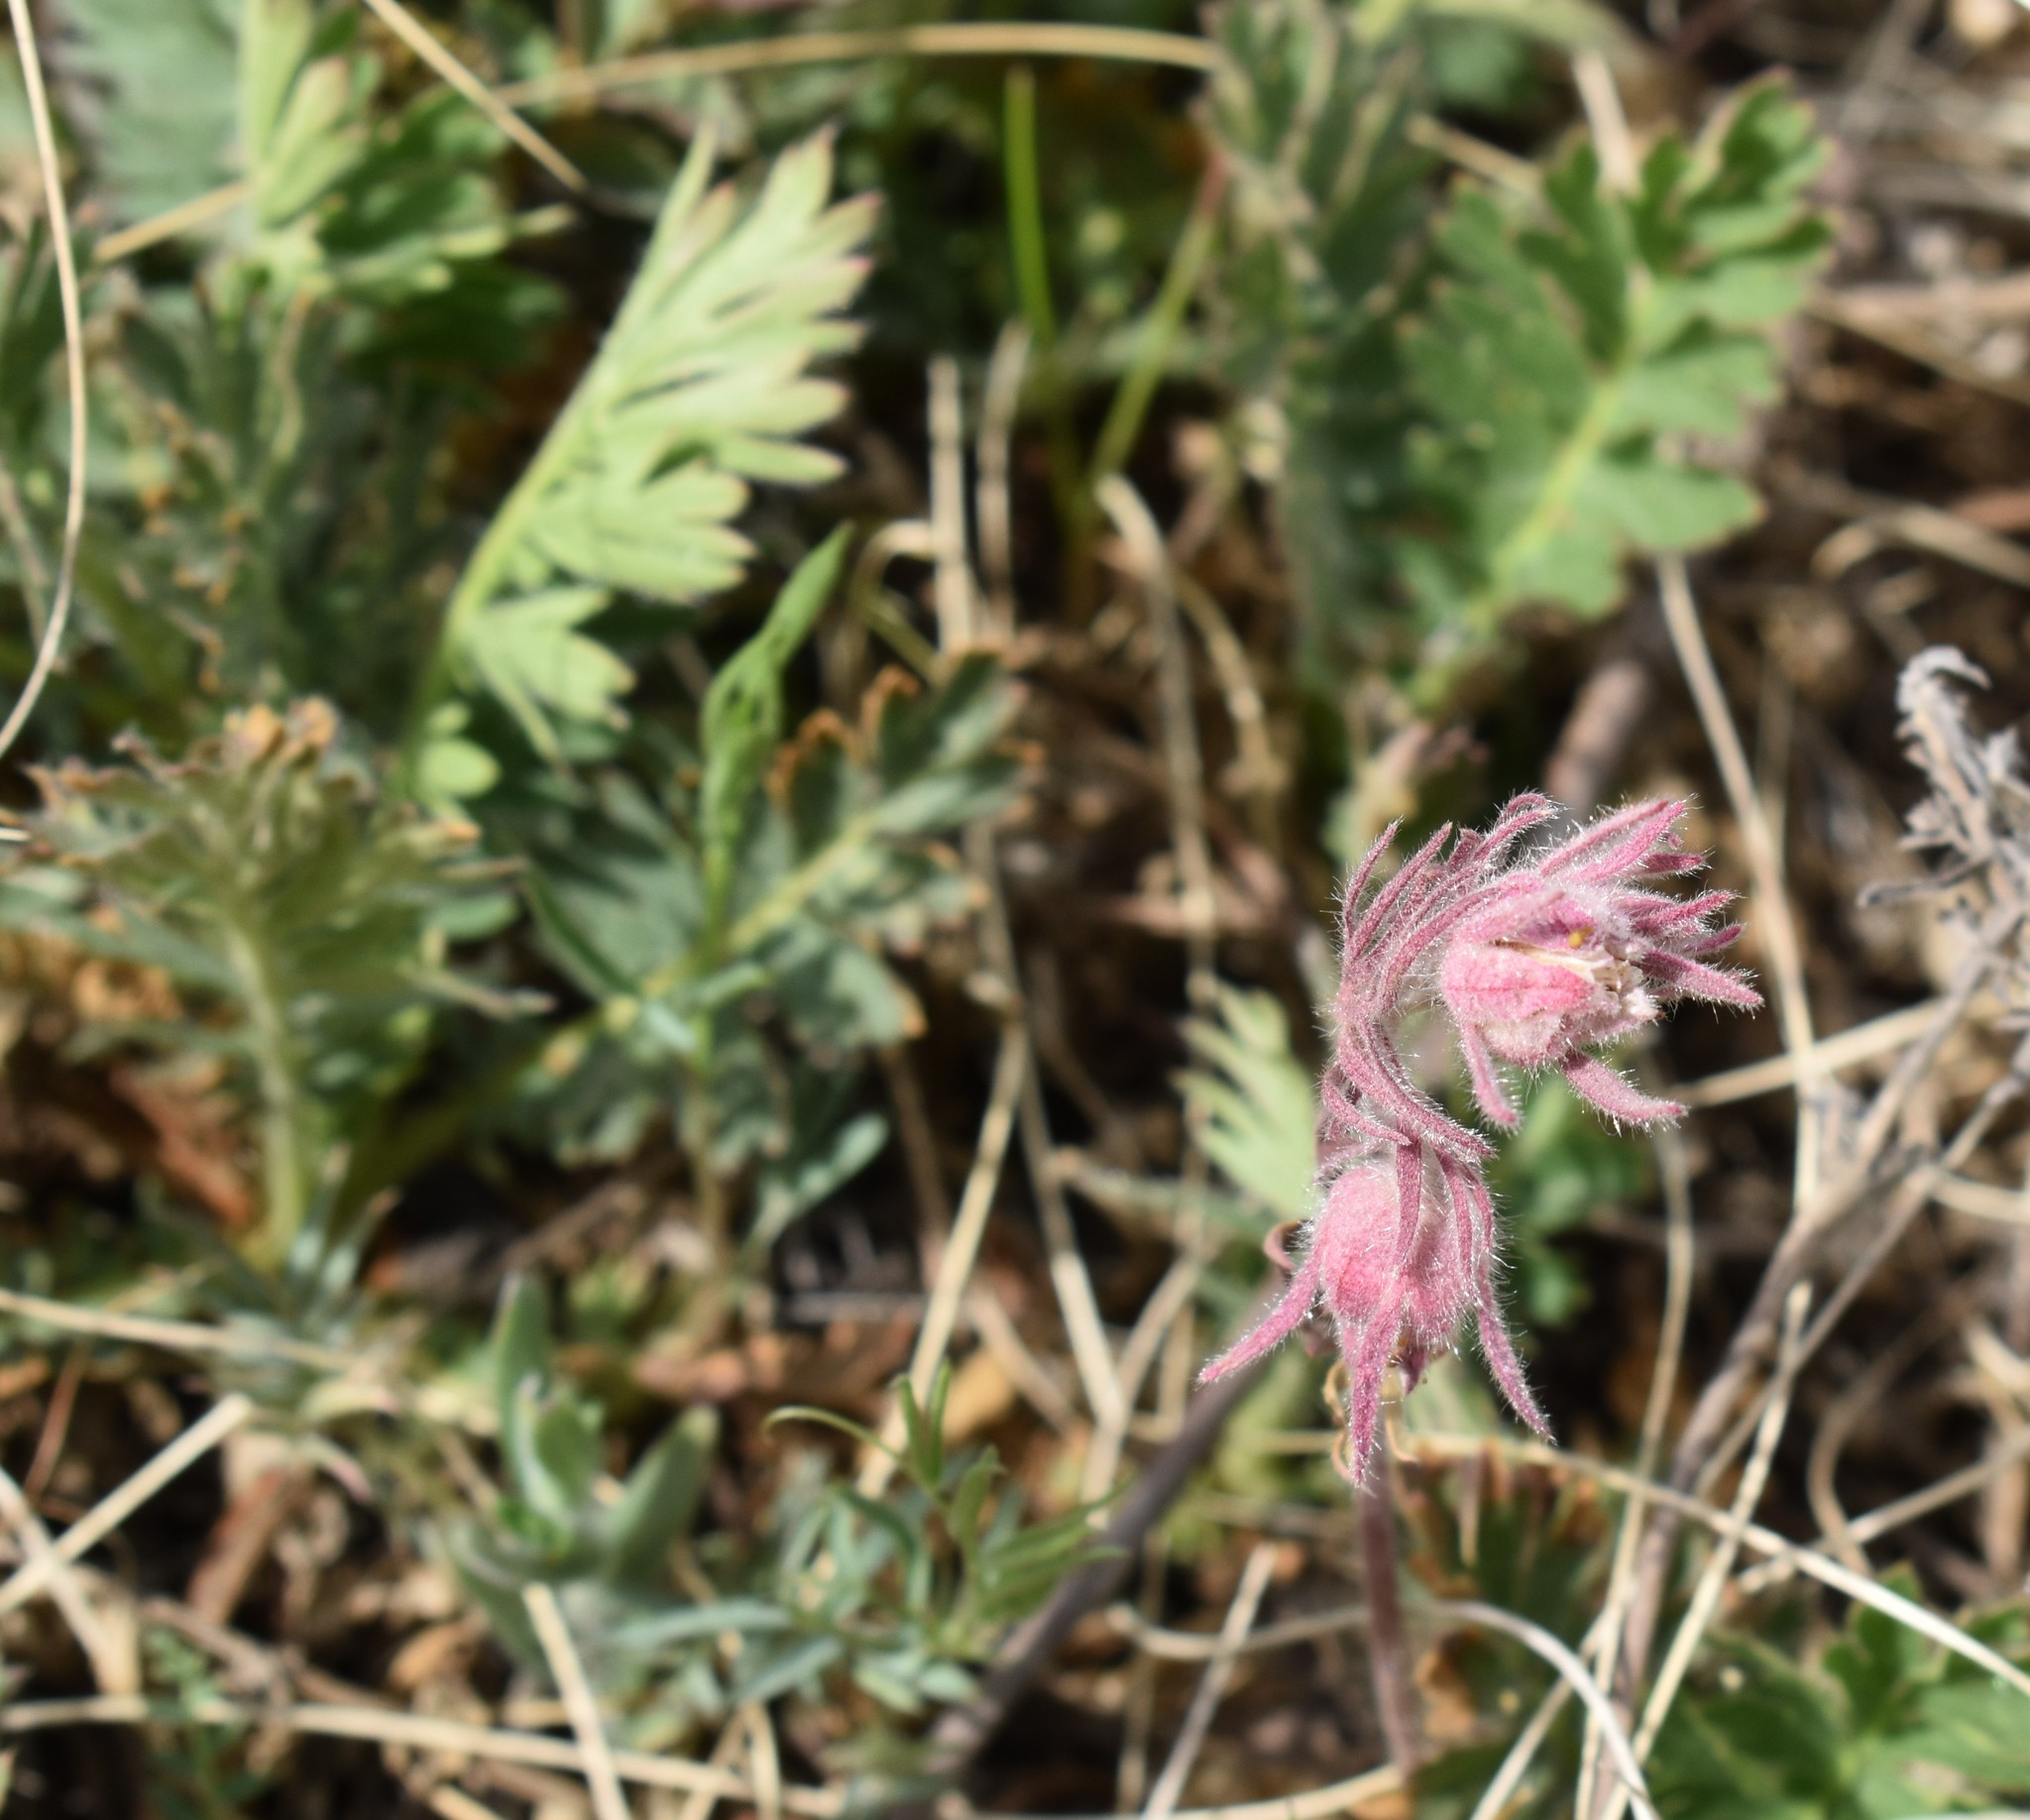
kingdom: Plantae
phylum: Tracheophyta
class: Magnoliopsida
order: Rosales
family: Rosaceae
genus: Geum
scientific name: Geum triflorum
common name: Old man's whiskers
